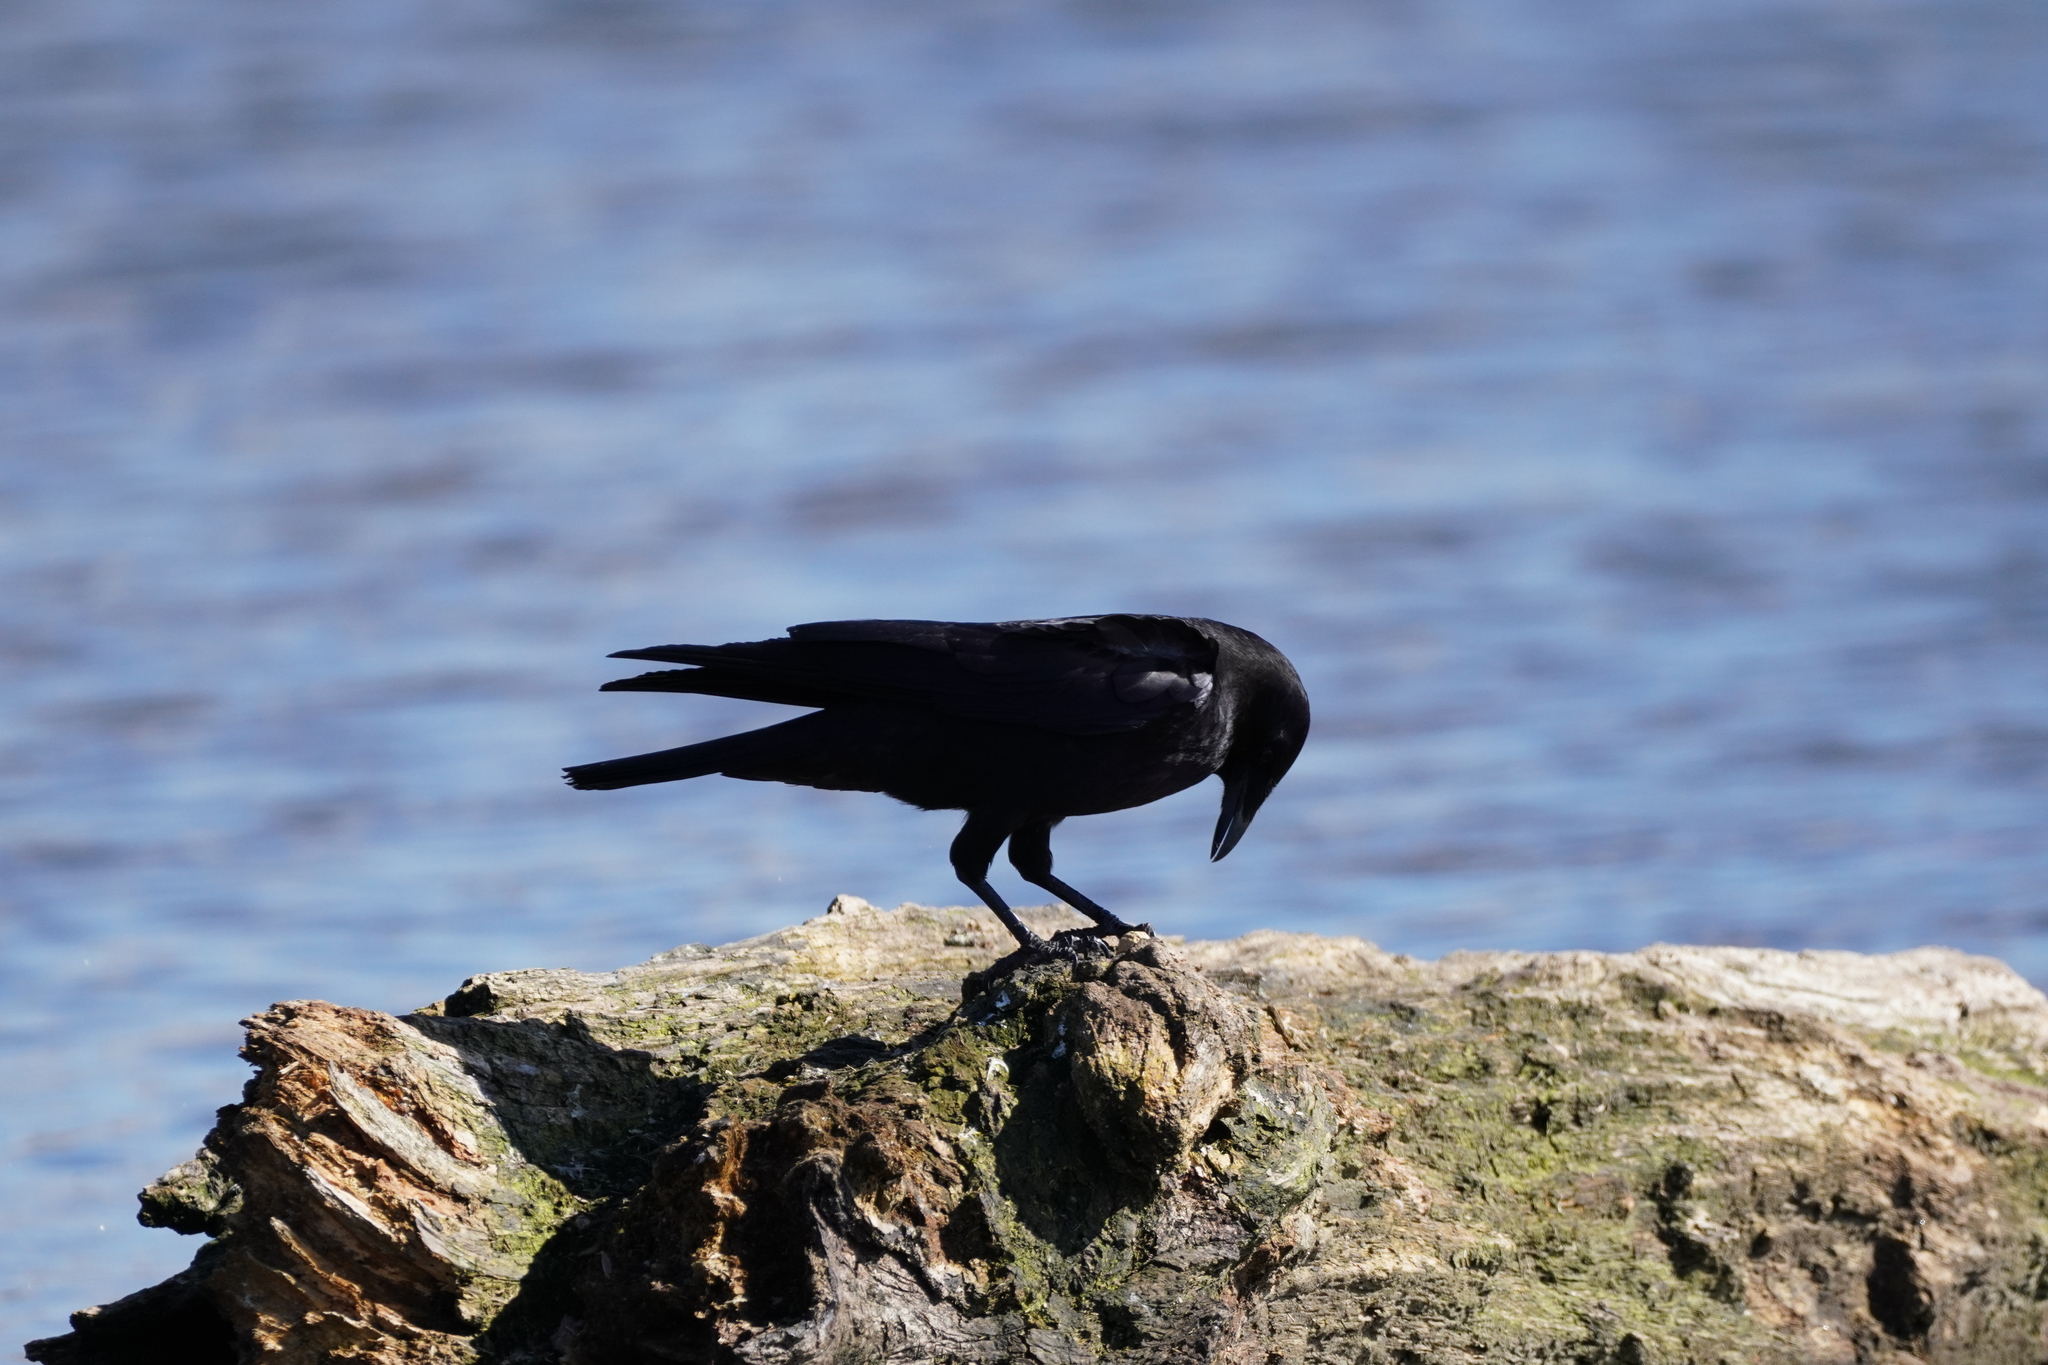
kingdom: Animalia
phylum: Chordata
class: Aves
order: Passeriformes
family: Corvidae
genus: Corvus
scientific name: Corvus brachyrhynchos
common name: American crow
